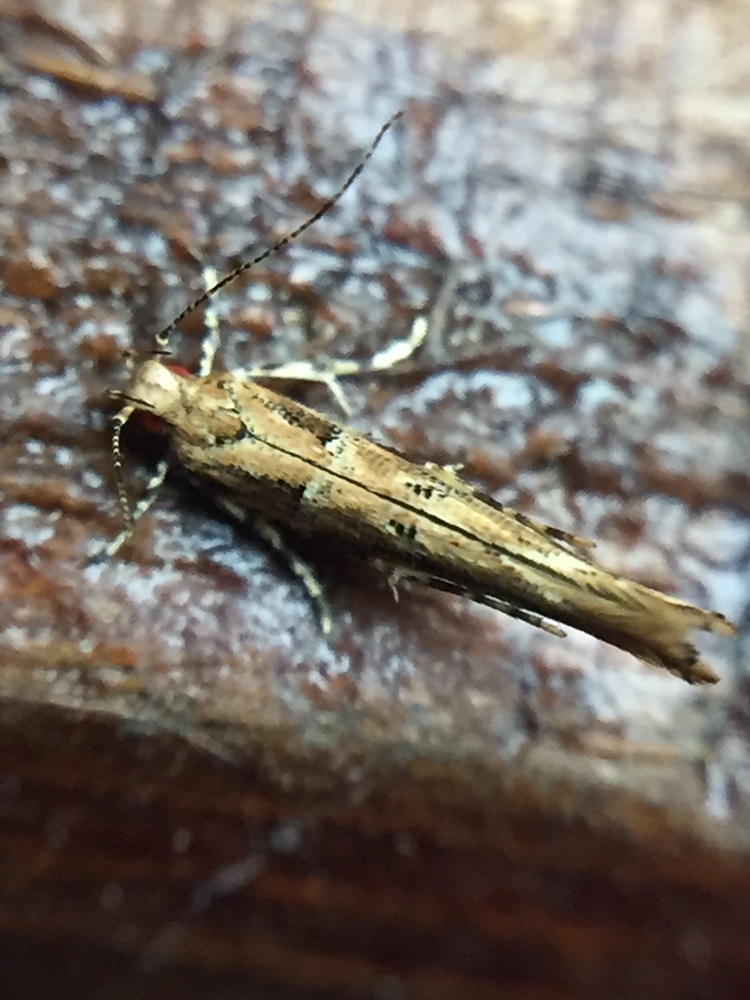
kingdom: Animalia
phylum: Arthropoda
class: Insecta
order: Lepidoptera
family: Cosmopterigidae
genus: Pyroderces
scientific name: Pyroderces aellotricha
